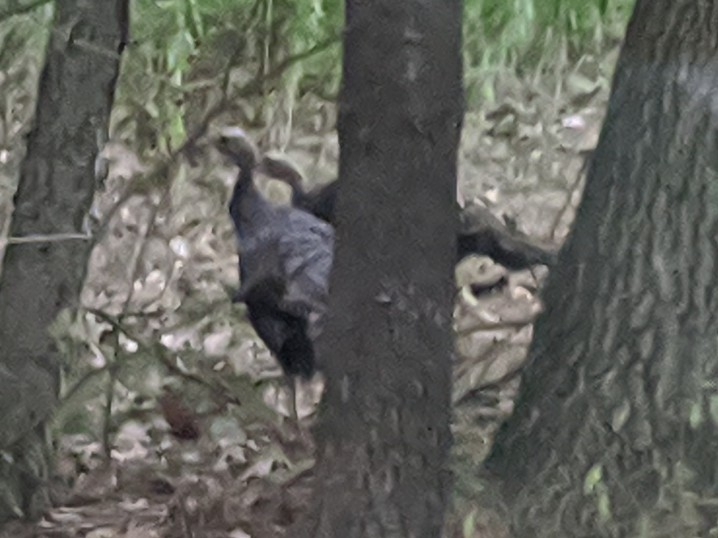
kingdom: Animalia
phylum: Chordata
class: Aves
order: Galliformes
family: Phasianidae
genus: Meleagris
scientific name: Meleagris gallopavo
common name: Wild turkey
